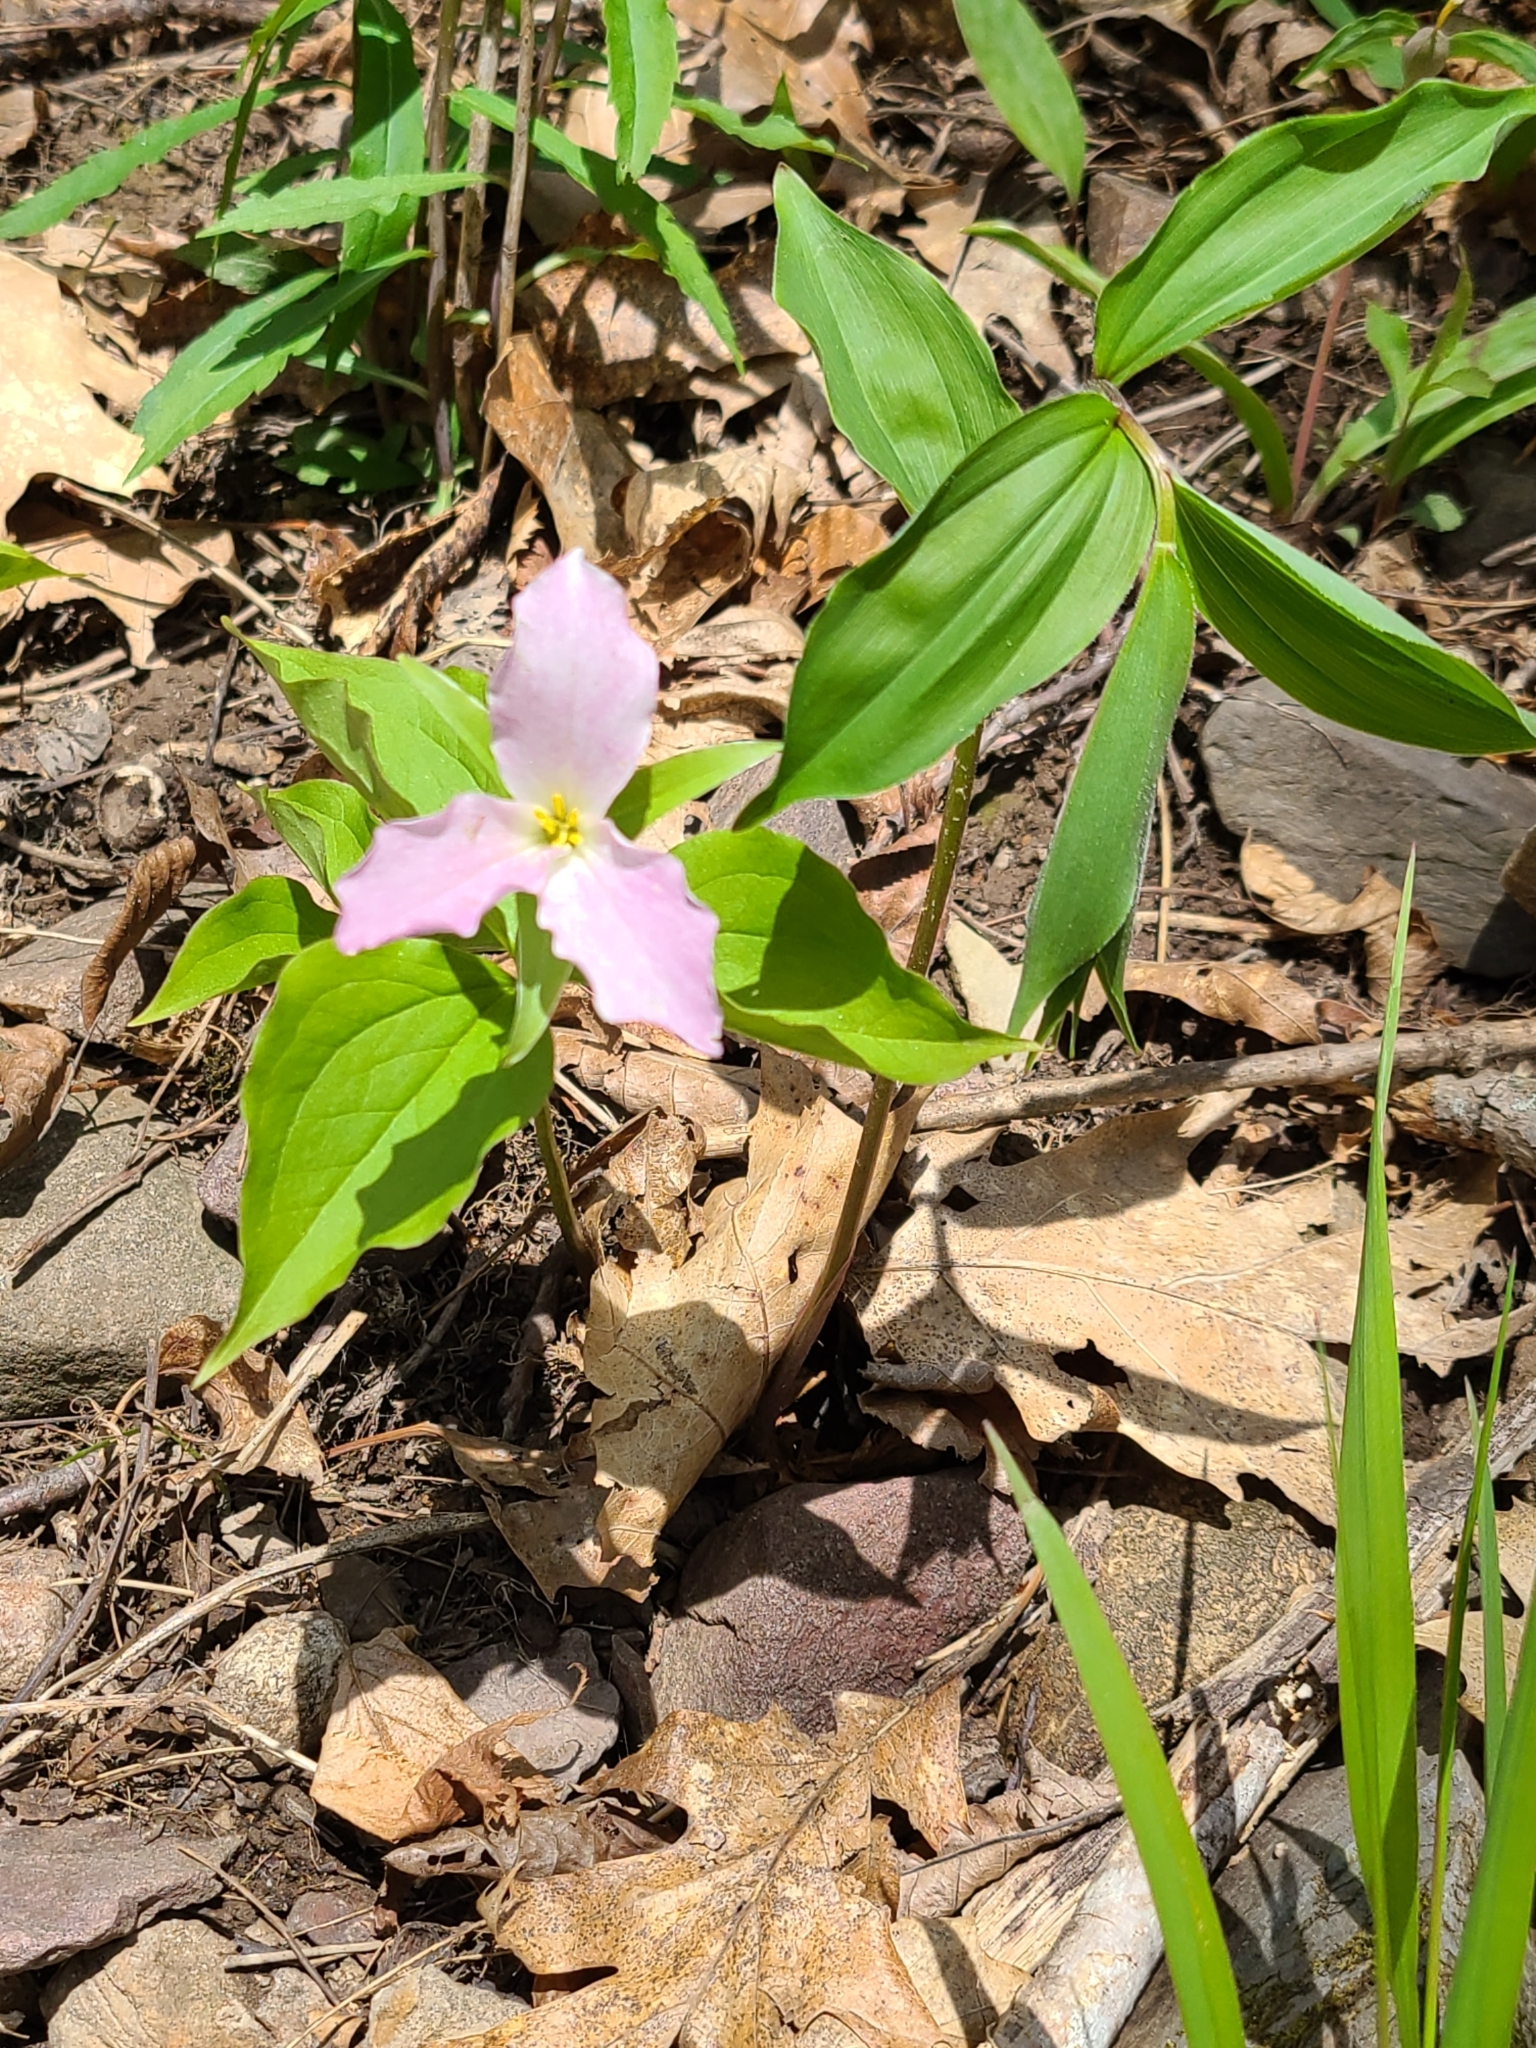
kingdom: Plantae
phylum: Tracheophyta
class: Liliopsida
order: Liliales
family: Melanthiaceae
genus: Trillium
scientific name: Trillium grandiflorum
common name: Great white trillium
